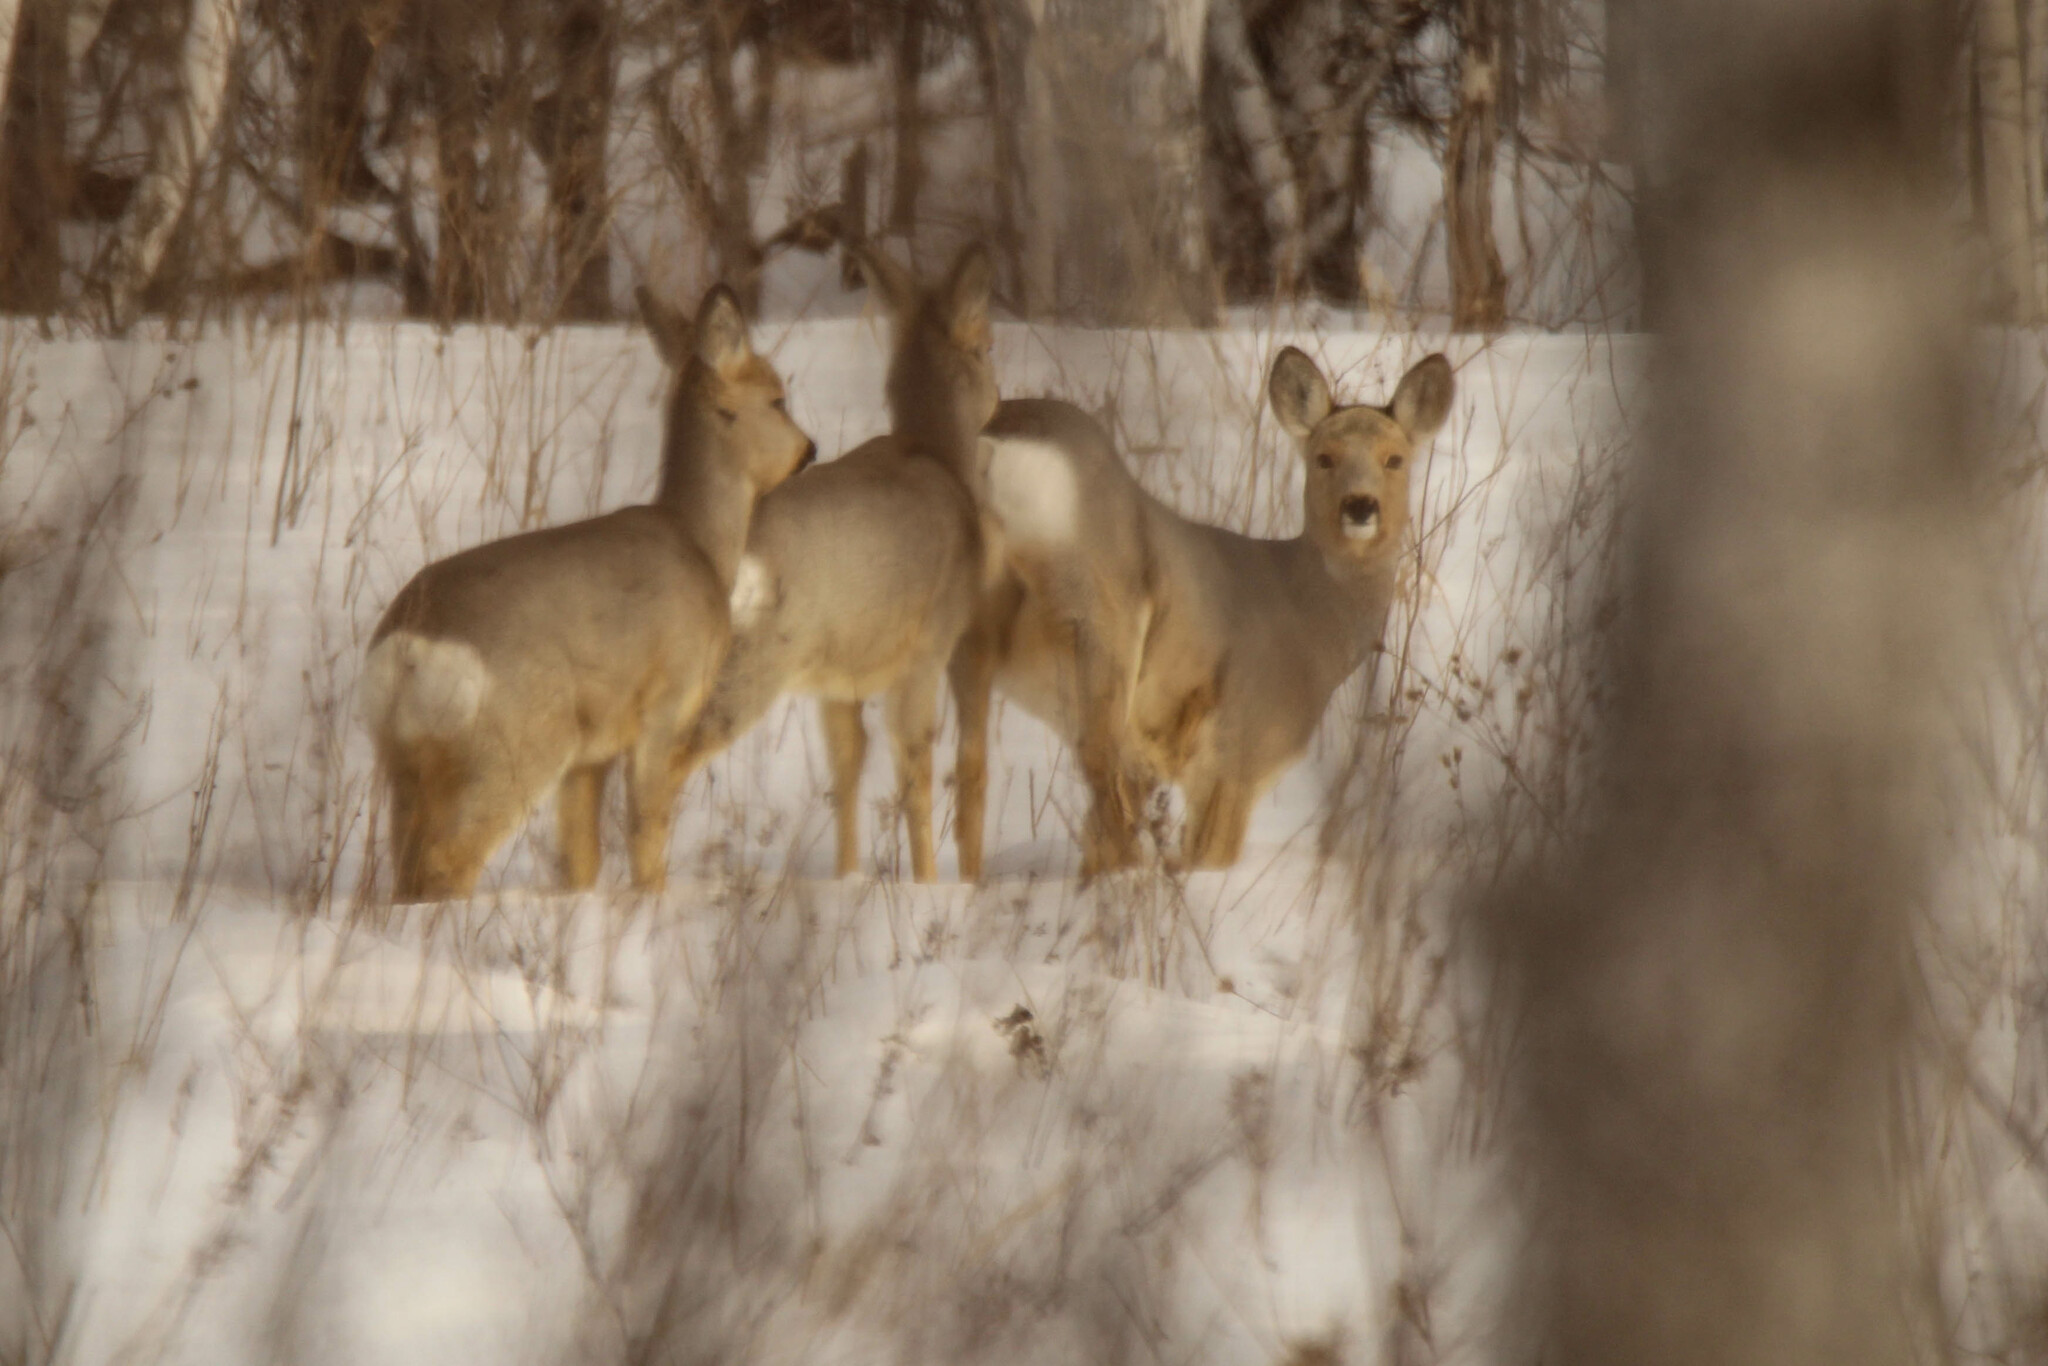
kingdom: Animalia
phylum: Chordata
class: Mammalia
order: Artiodactyla
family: Cervidae
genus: Capreolus
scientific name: Capreolus pygargus
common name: Siberian roe
